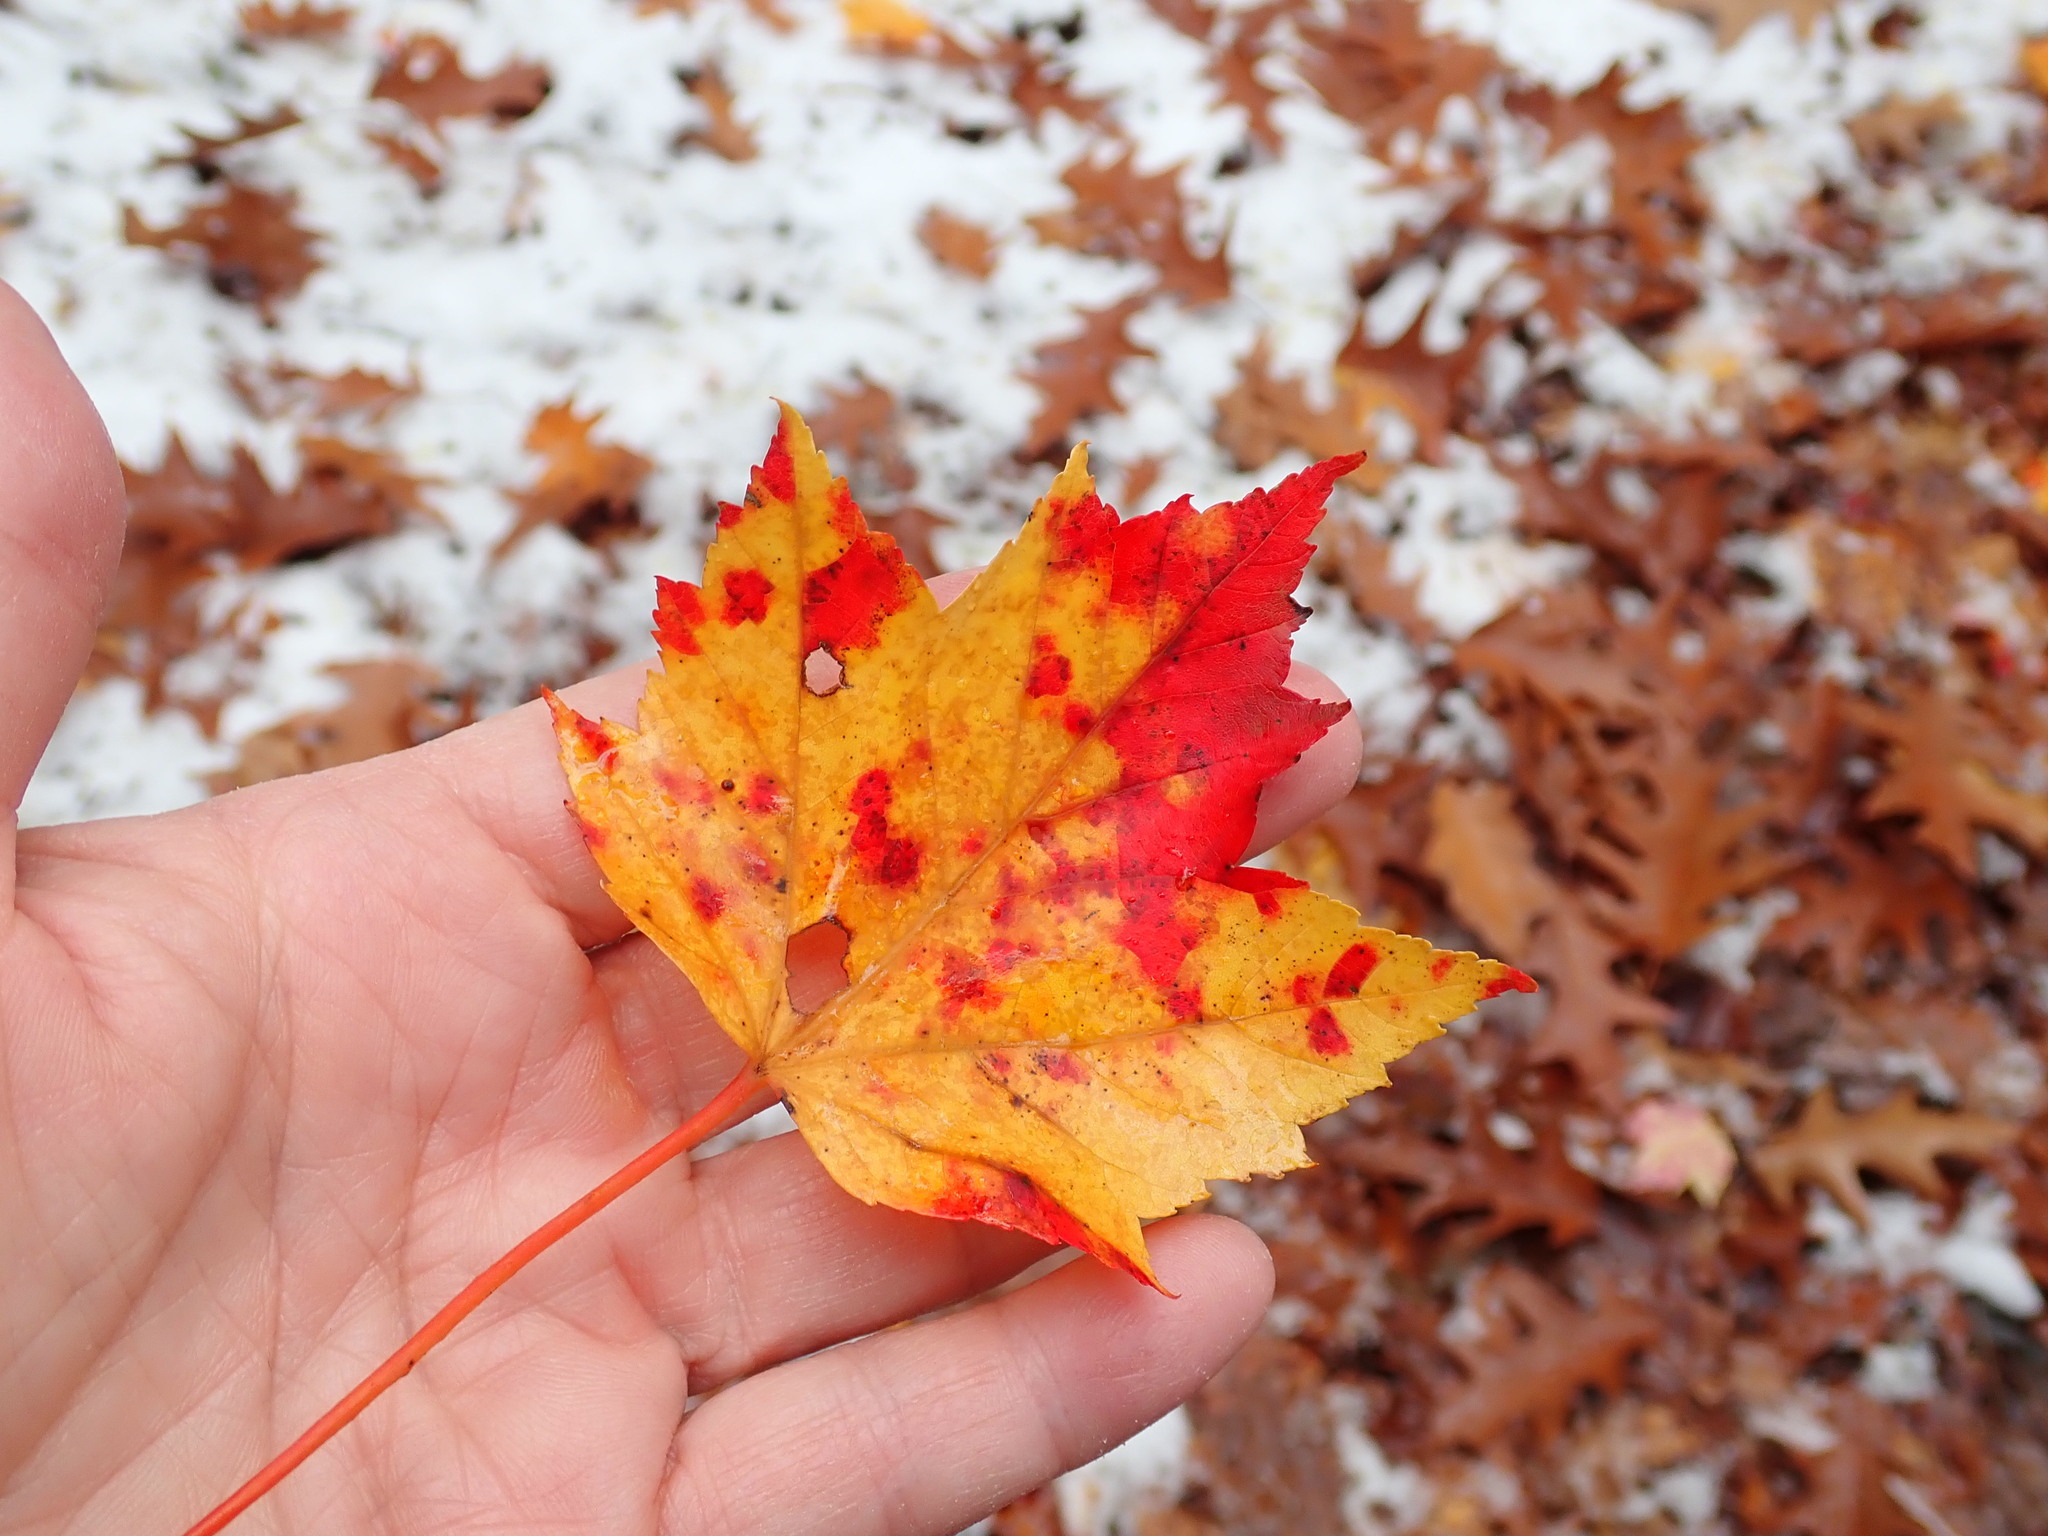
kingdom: Plantae
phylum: Tracheophyta
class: Magnoliopsida
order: Sapindales
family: Sapindaceae
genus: Acer
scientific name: Acer rubrum
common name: Red maple
